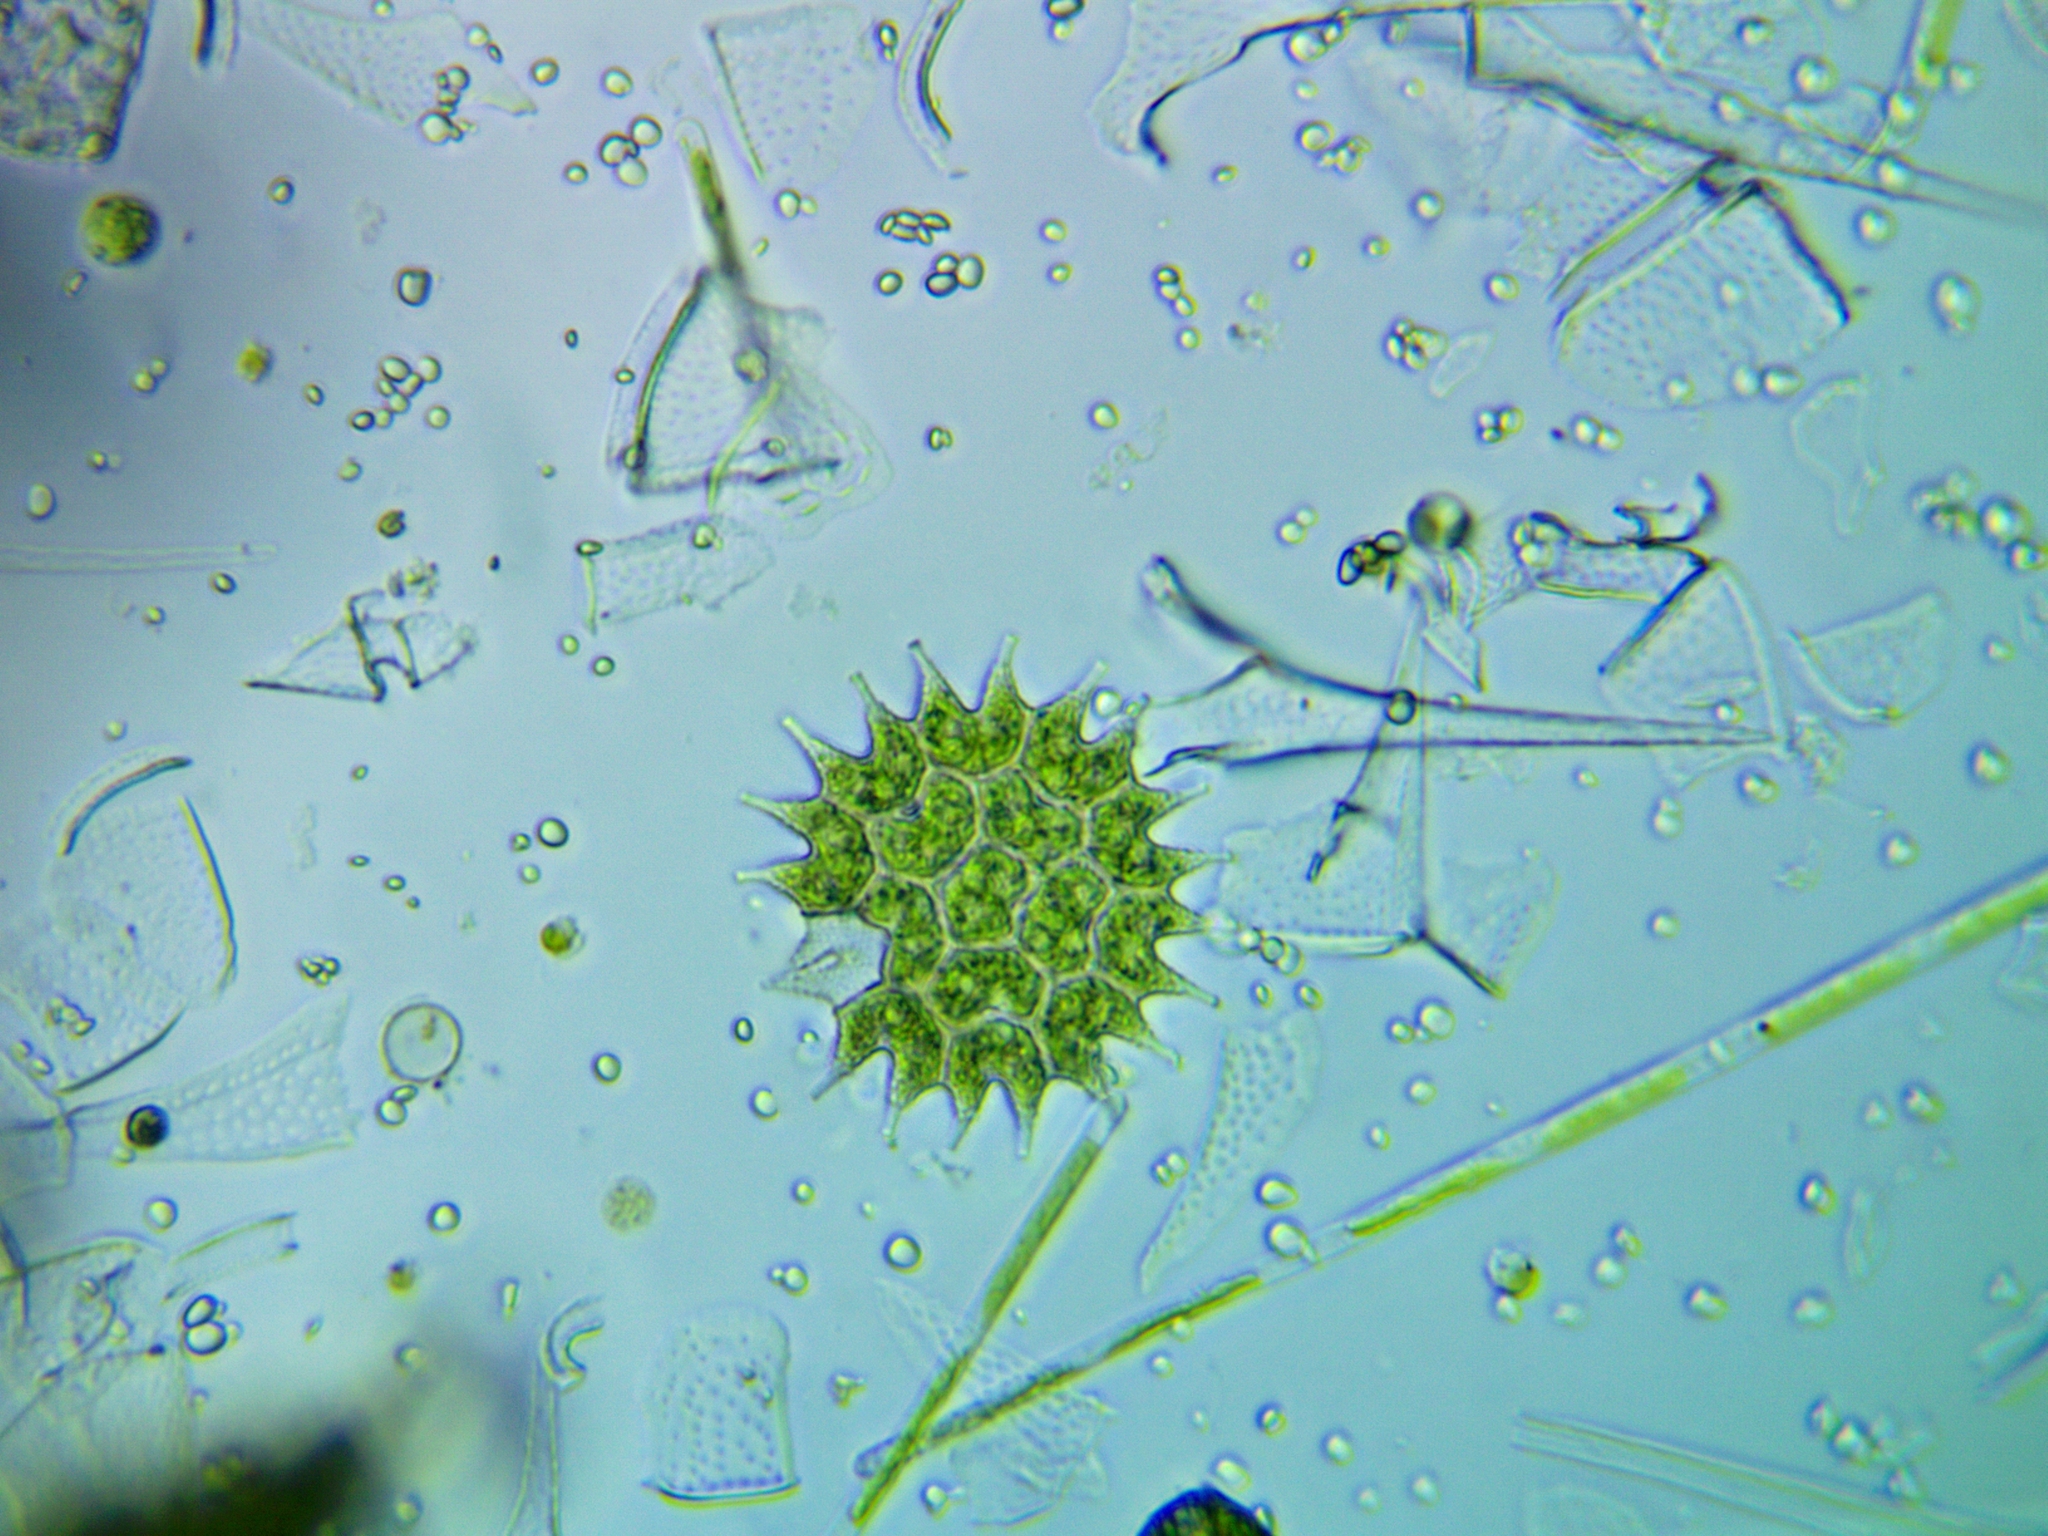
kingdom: Plantae
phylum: Chlorophyta
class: Chlorophyceae
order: Sphaeropleales
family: Hydrodictyaceae
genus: Pseudopediastrum
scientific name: Pseudopediastrum boryanum
